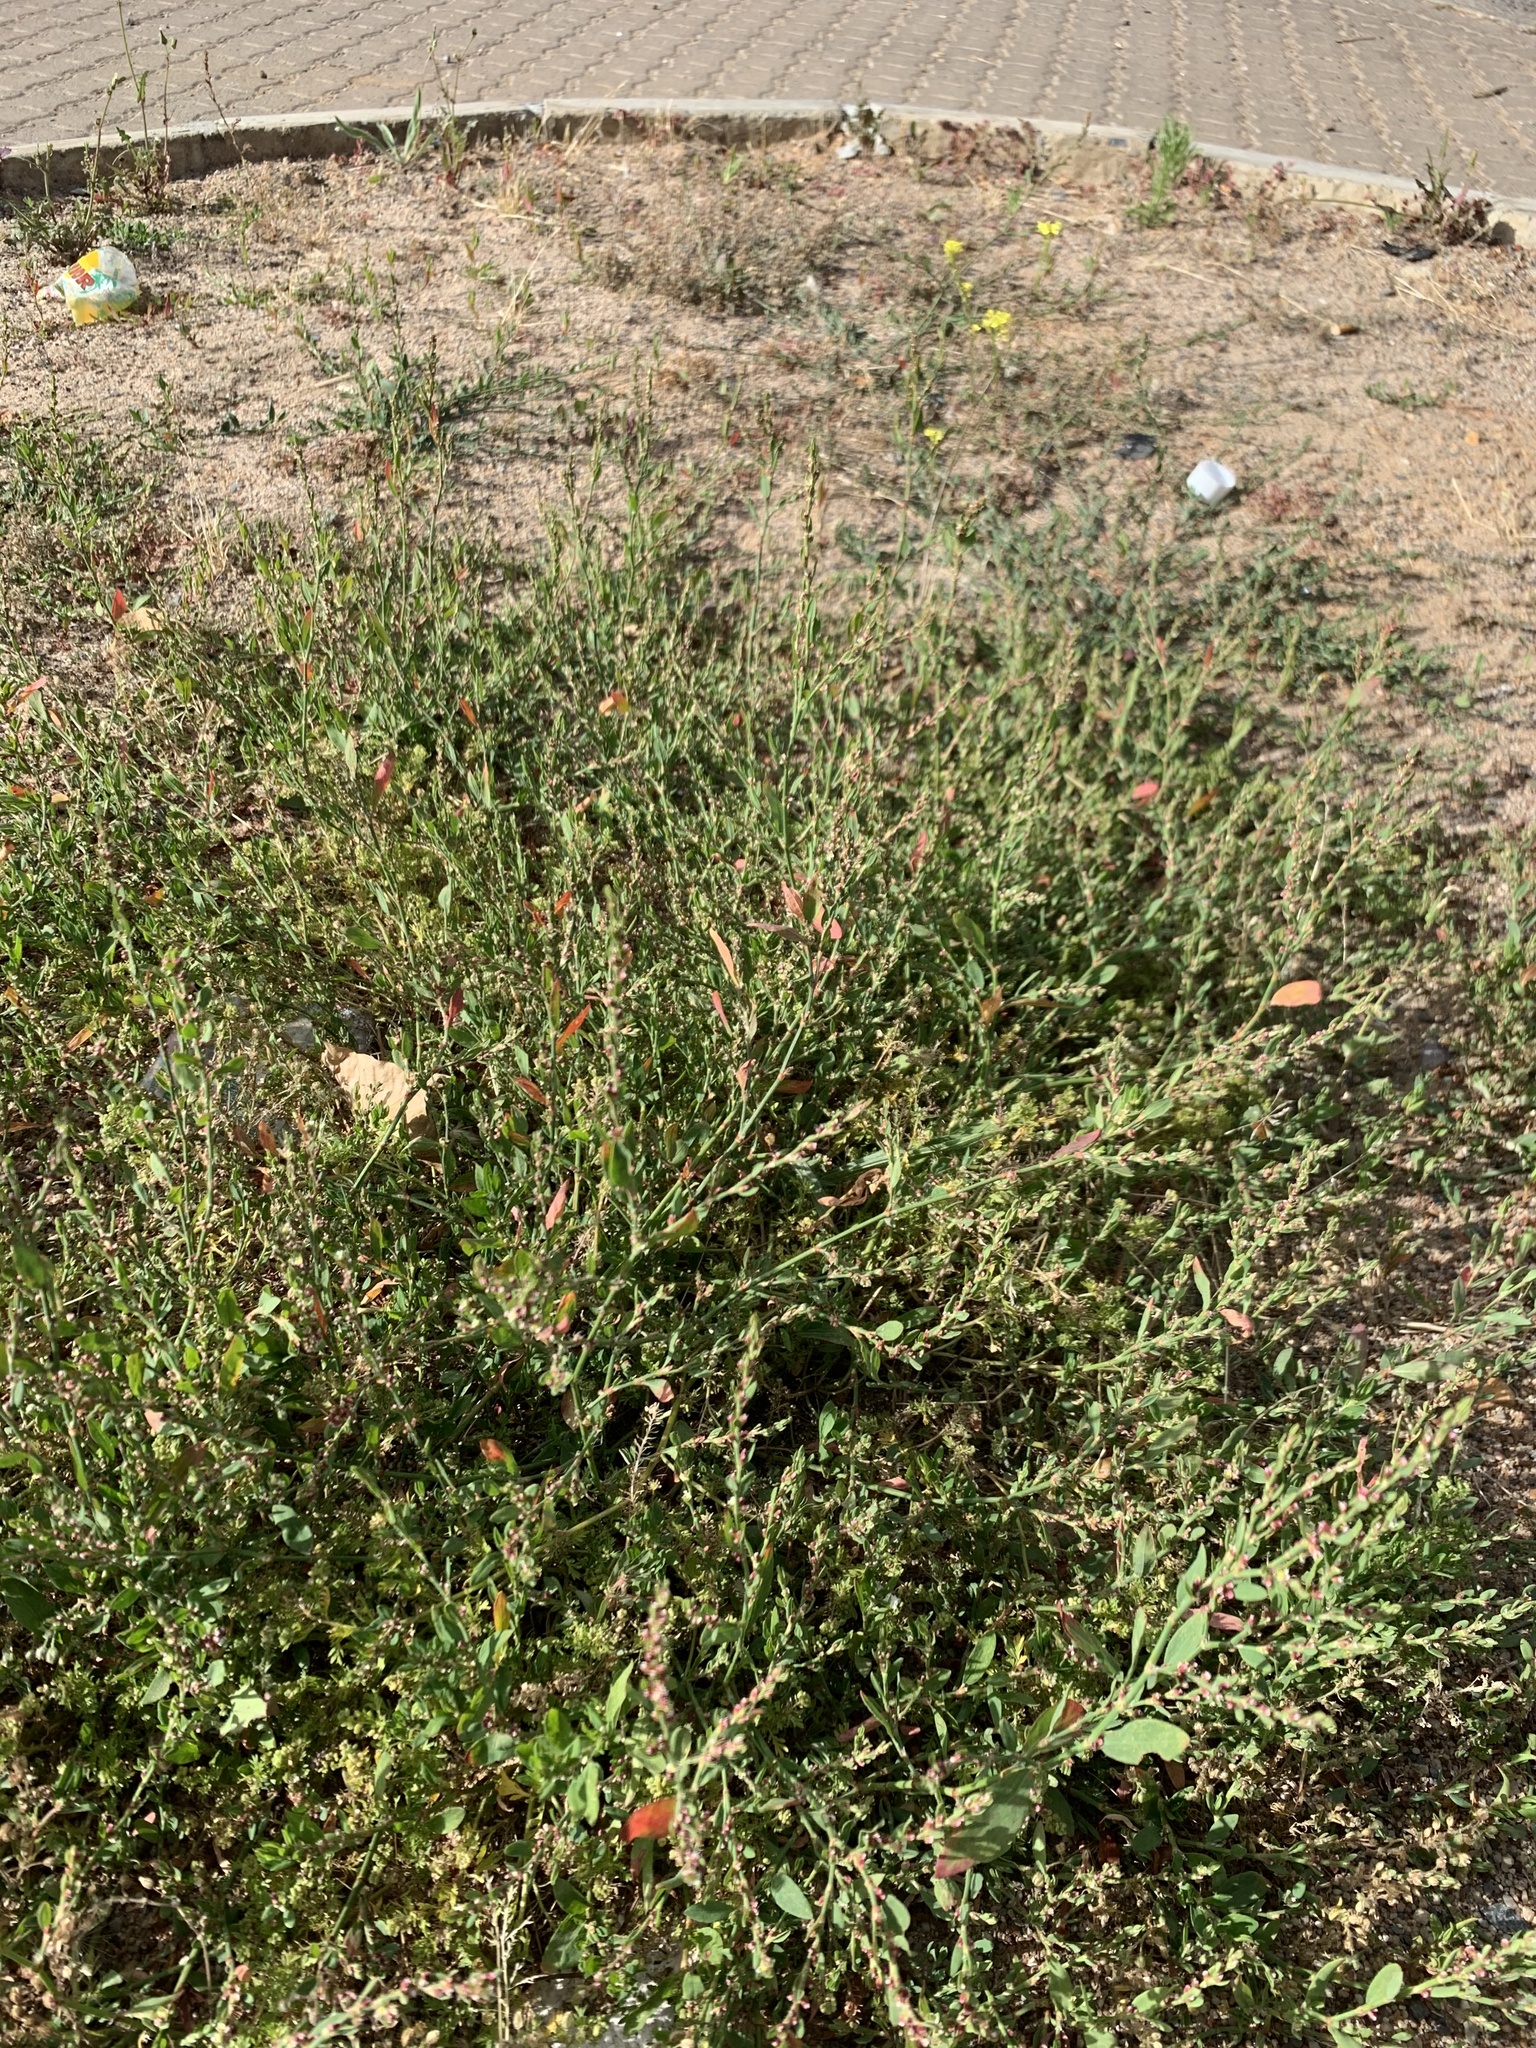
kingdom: Plantae
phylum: Tracheophyta
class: Magnoliopsida
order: Caryophyllales
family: Polygonaceae
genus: Polygonum
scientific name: Polygonum aviculare
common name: Prostrate knotweed
